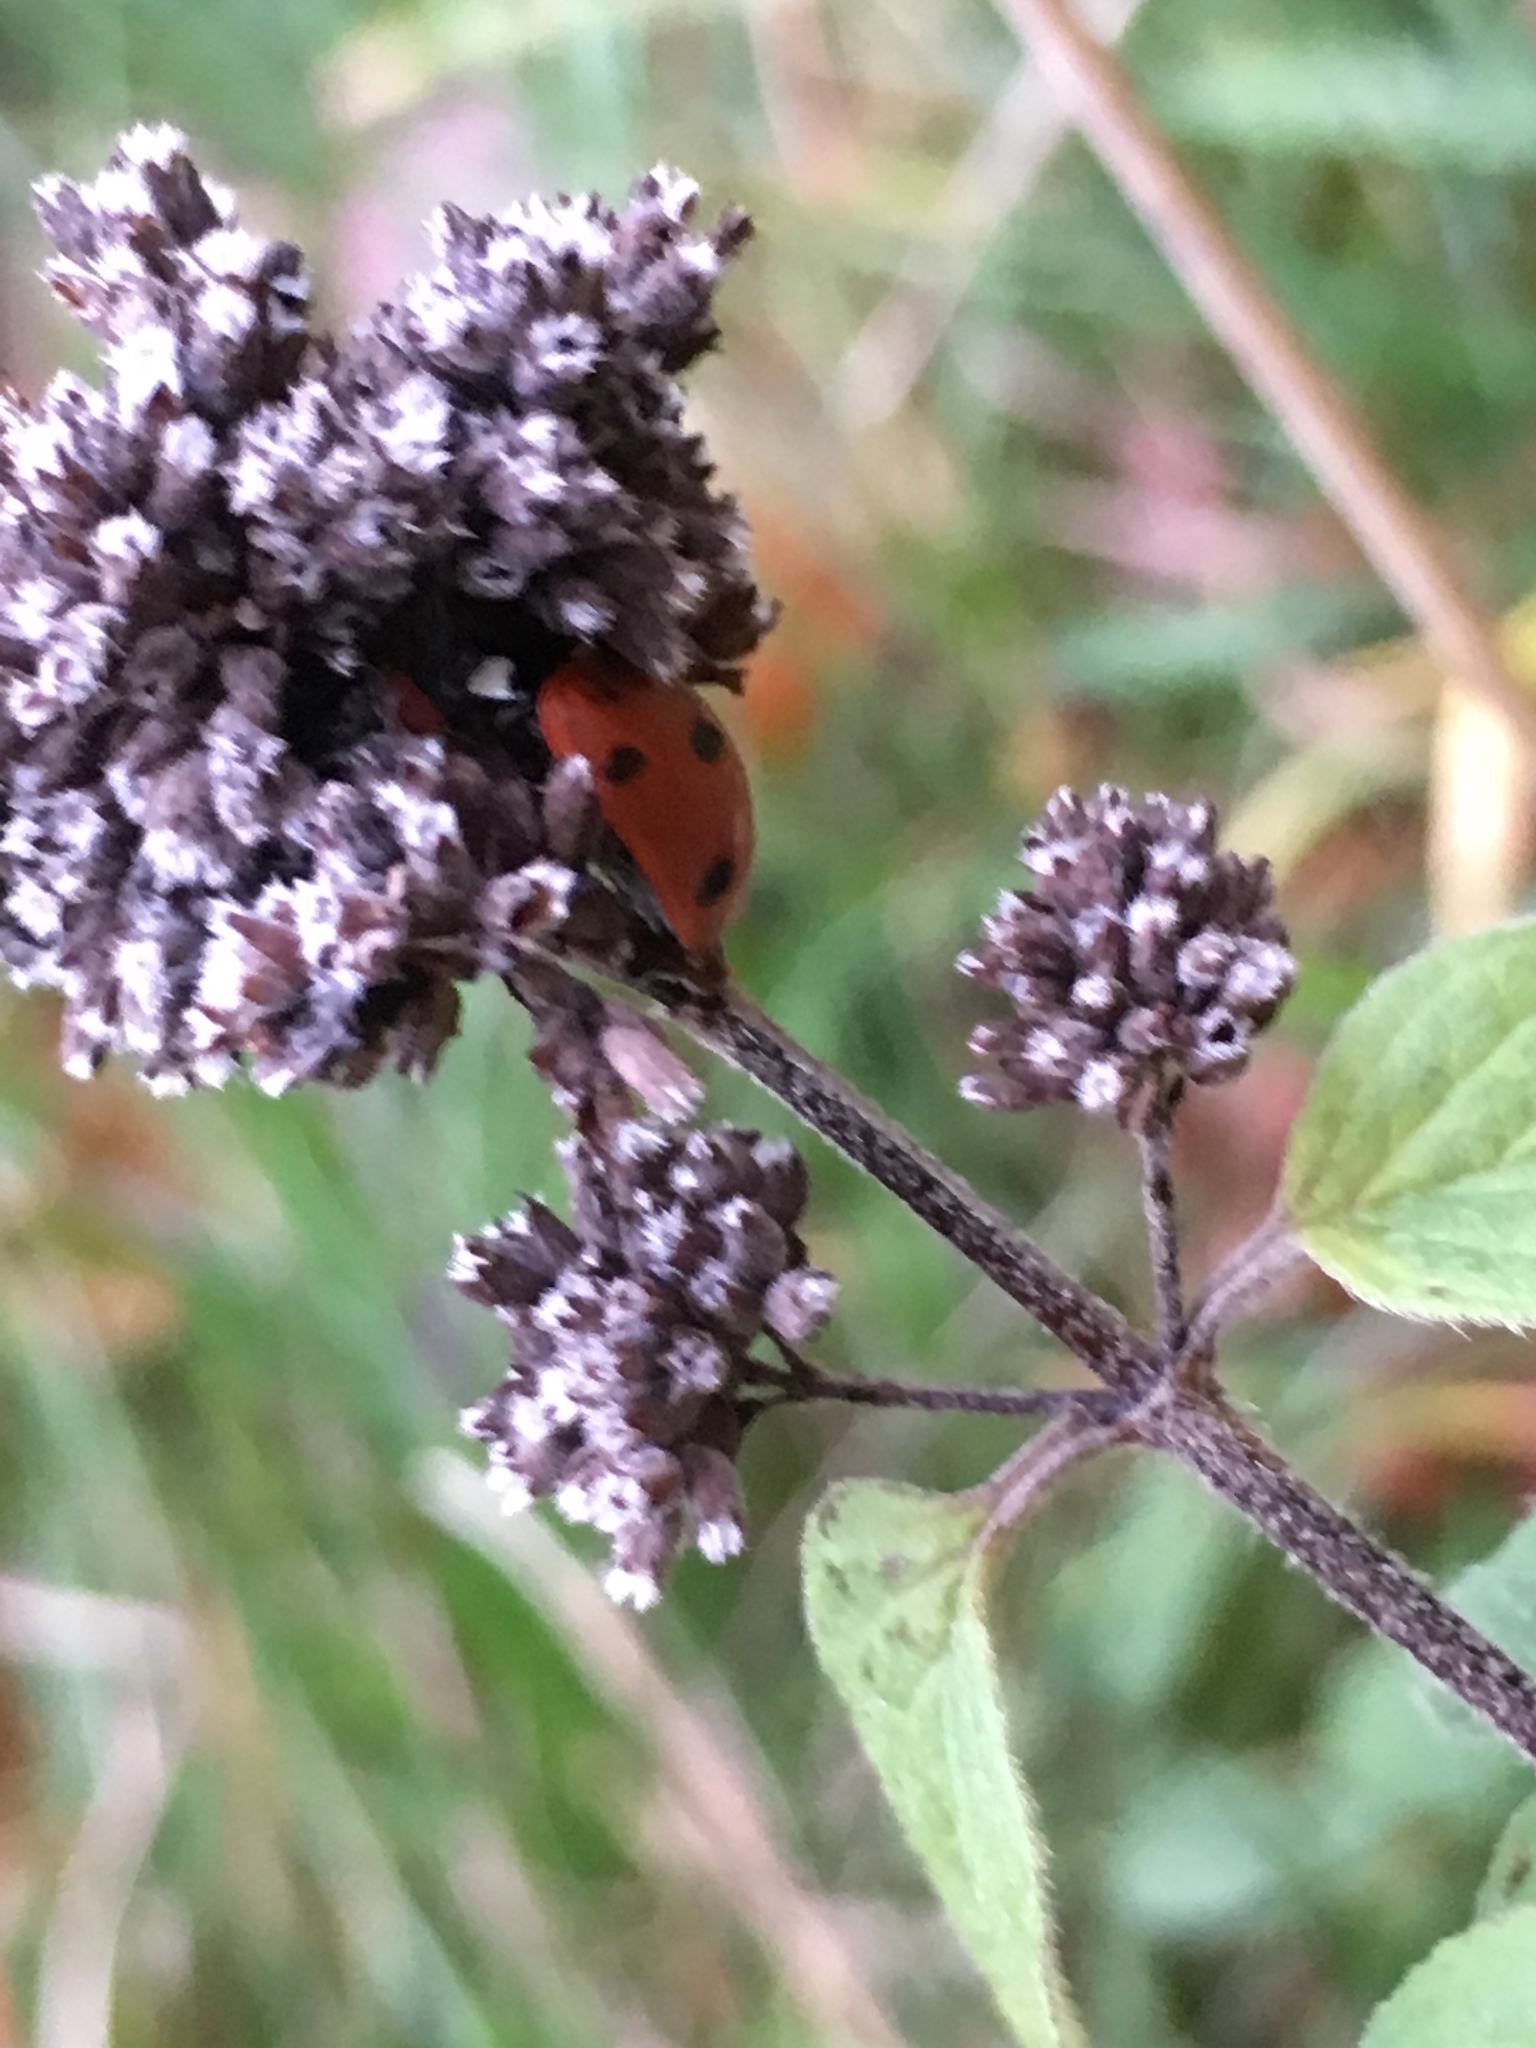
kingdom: Animalia
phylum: Arthropoda
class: Insecta
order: Coleoptera
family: Coccinellidae
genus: Coccinella
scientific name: Coccinella septempunctata
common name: Sevenspotted lady beetle
